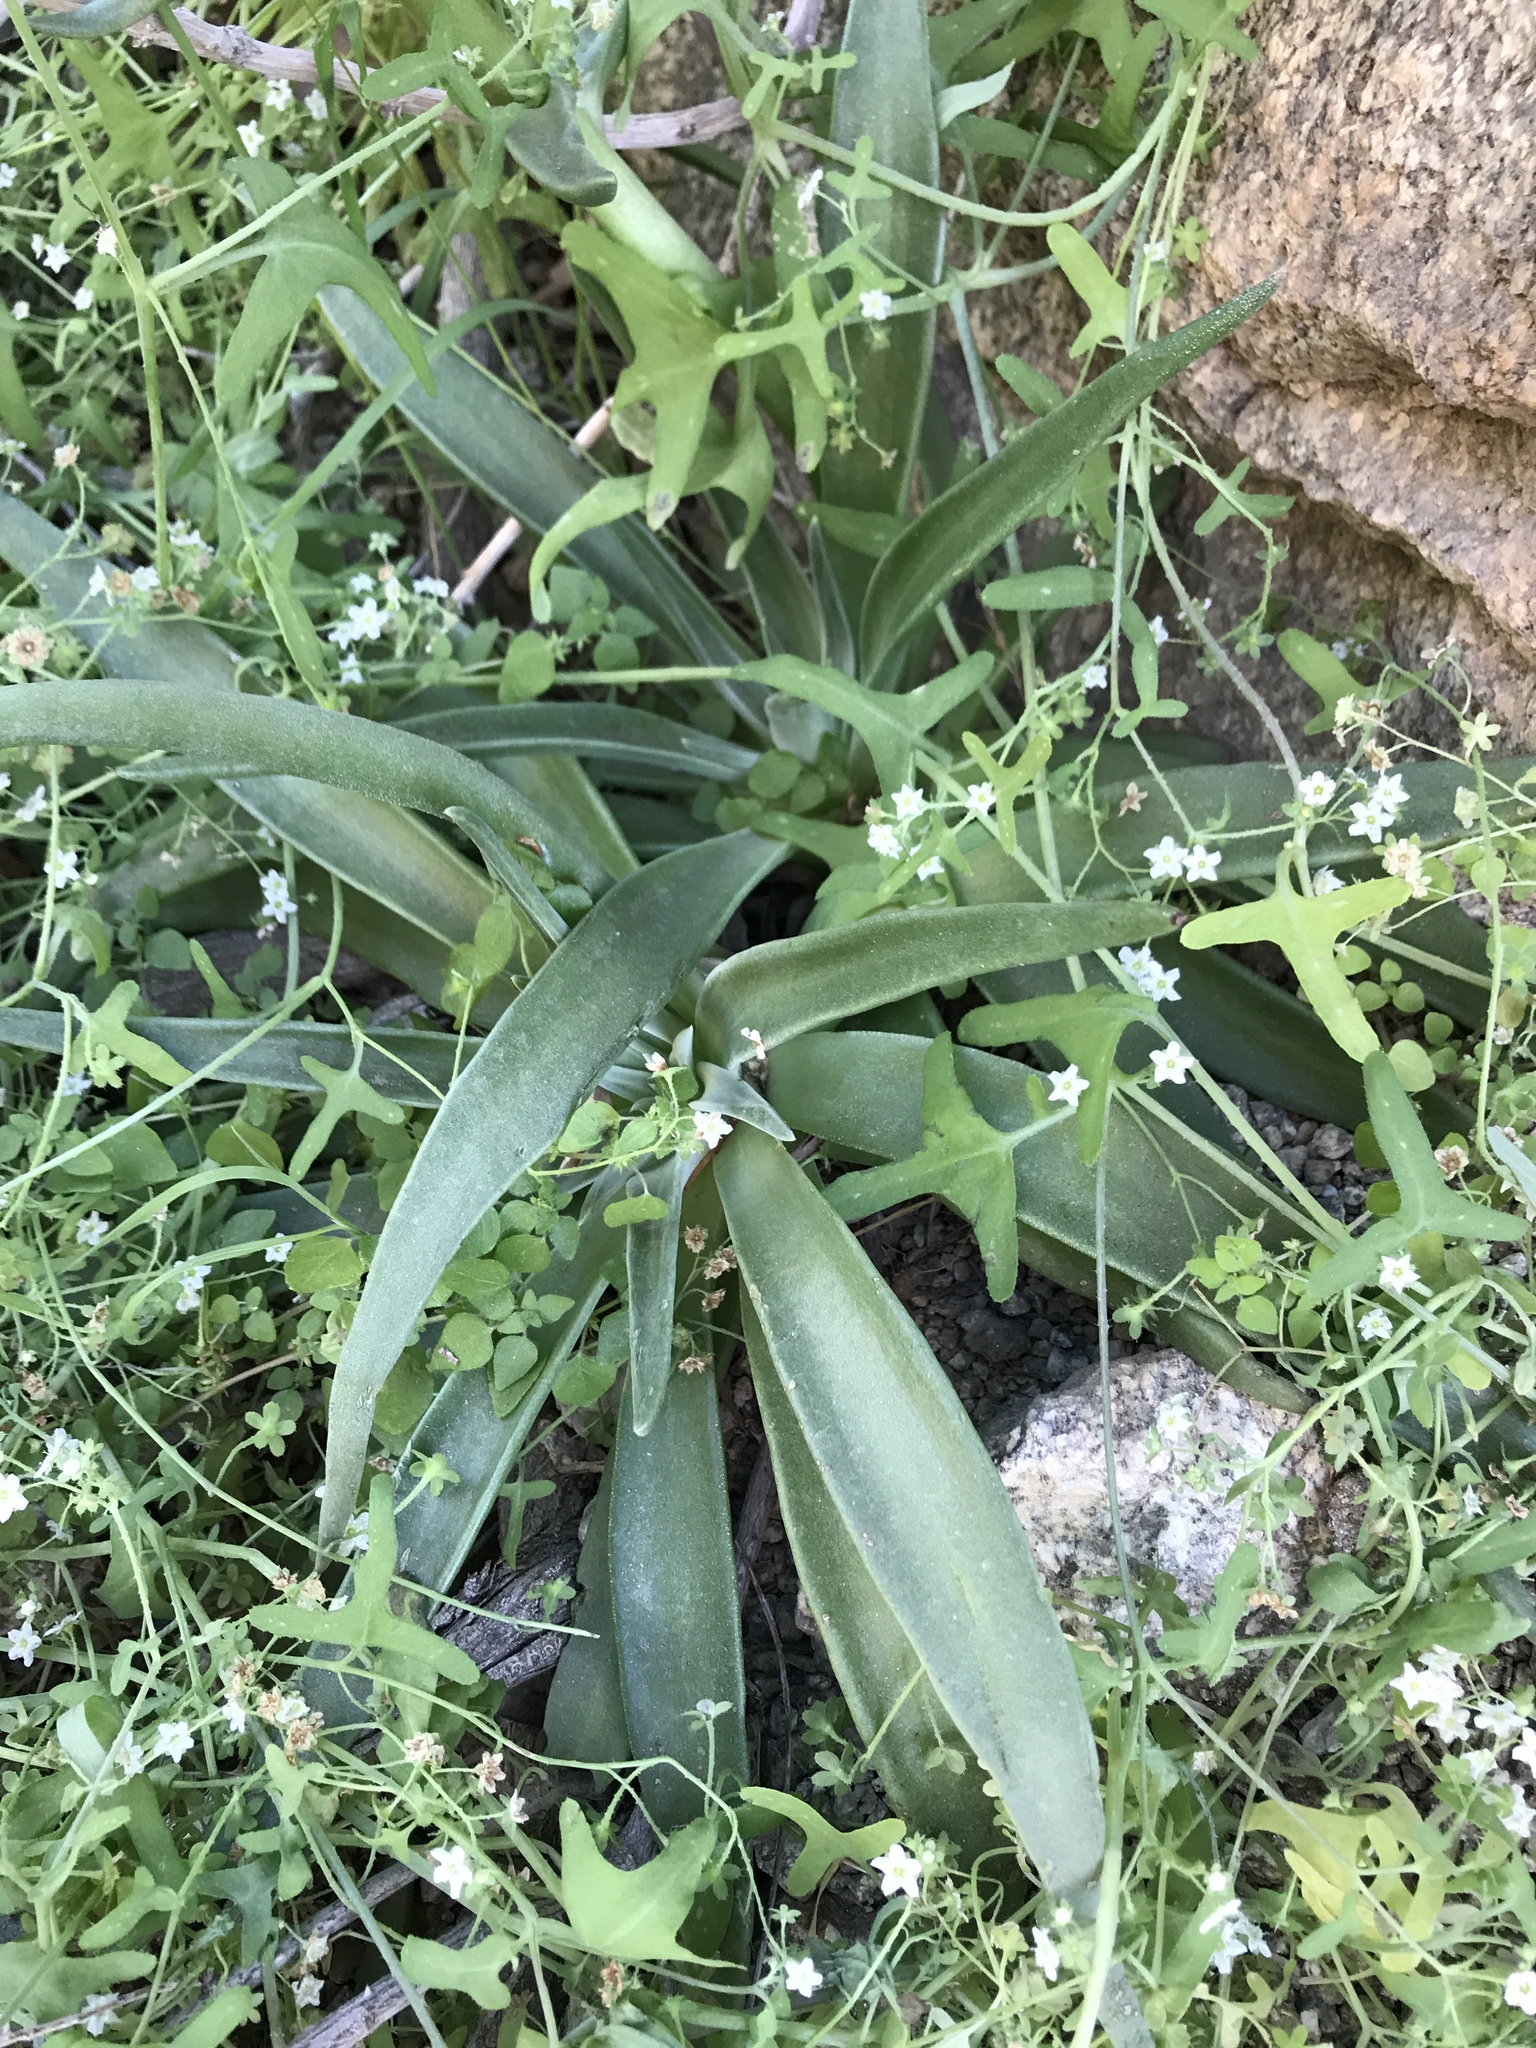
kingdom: Plantae
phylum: Tracheophyta
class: Magnoliopsida
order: Saxifragales
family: Crassulaceae
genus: Dudleya
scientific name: Dudleya saxosa
